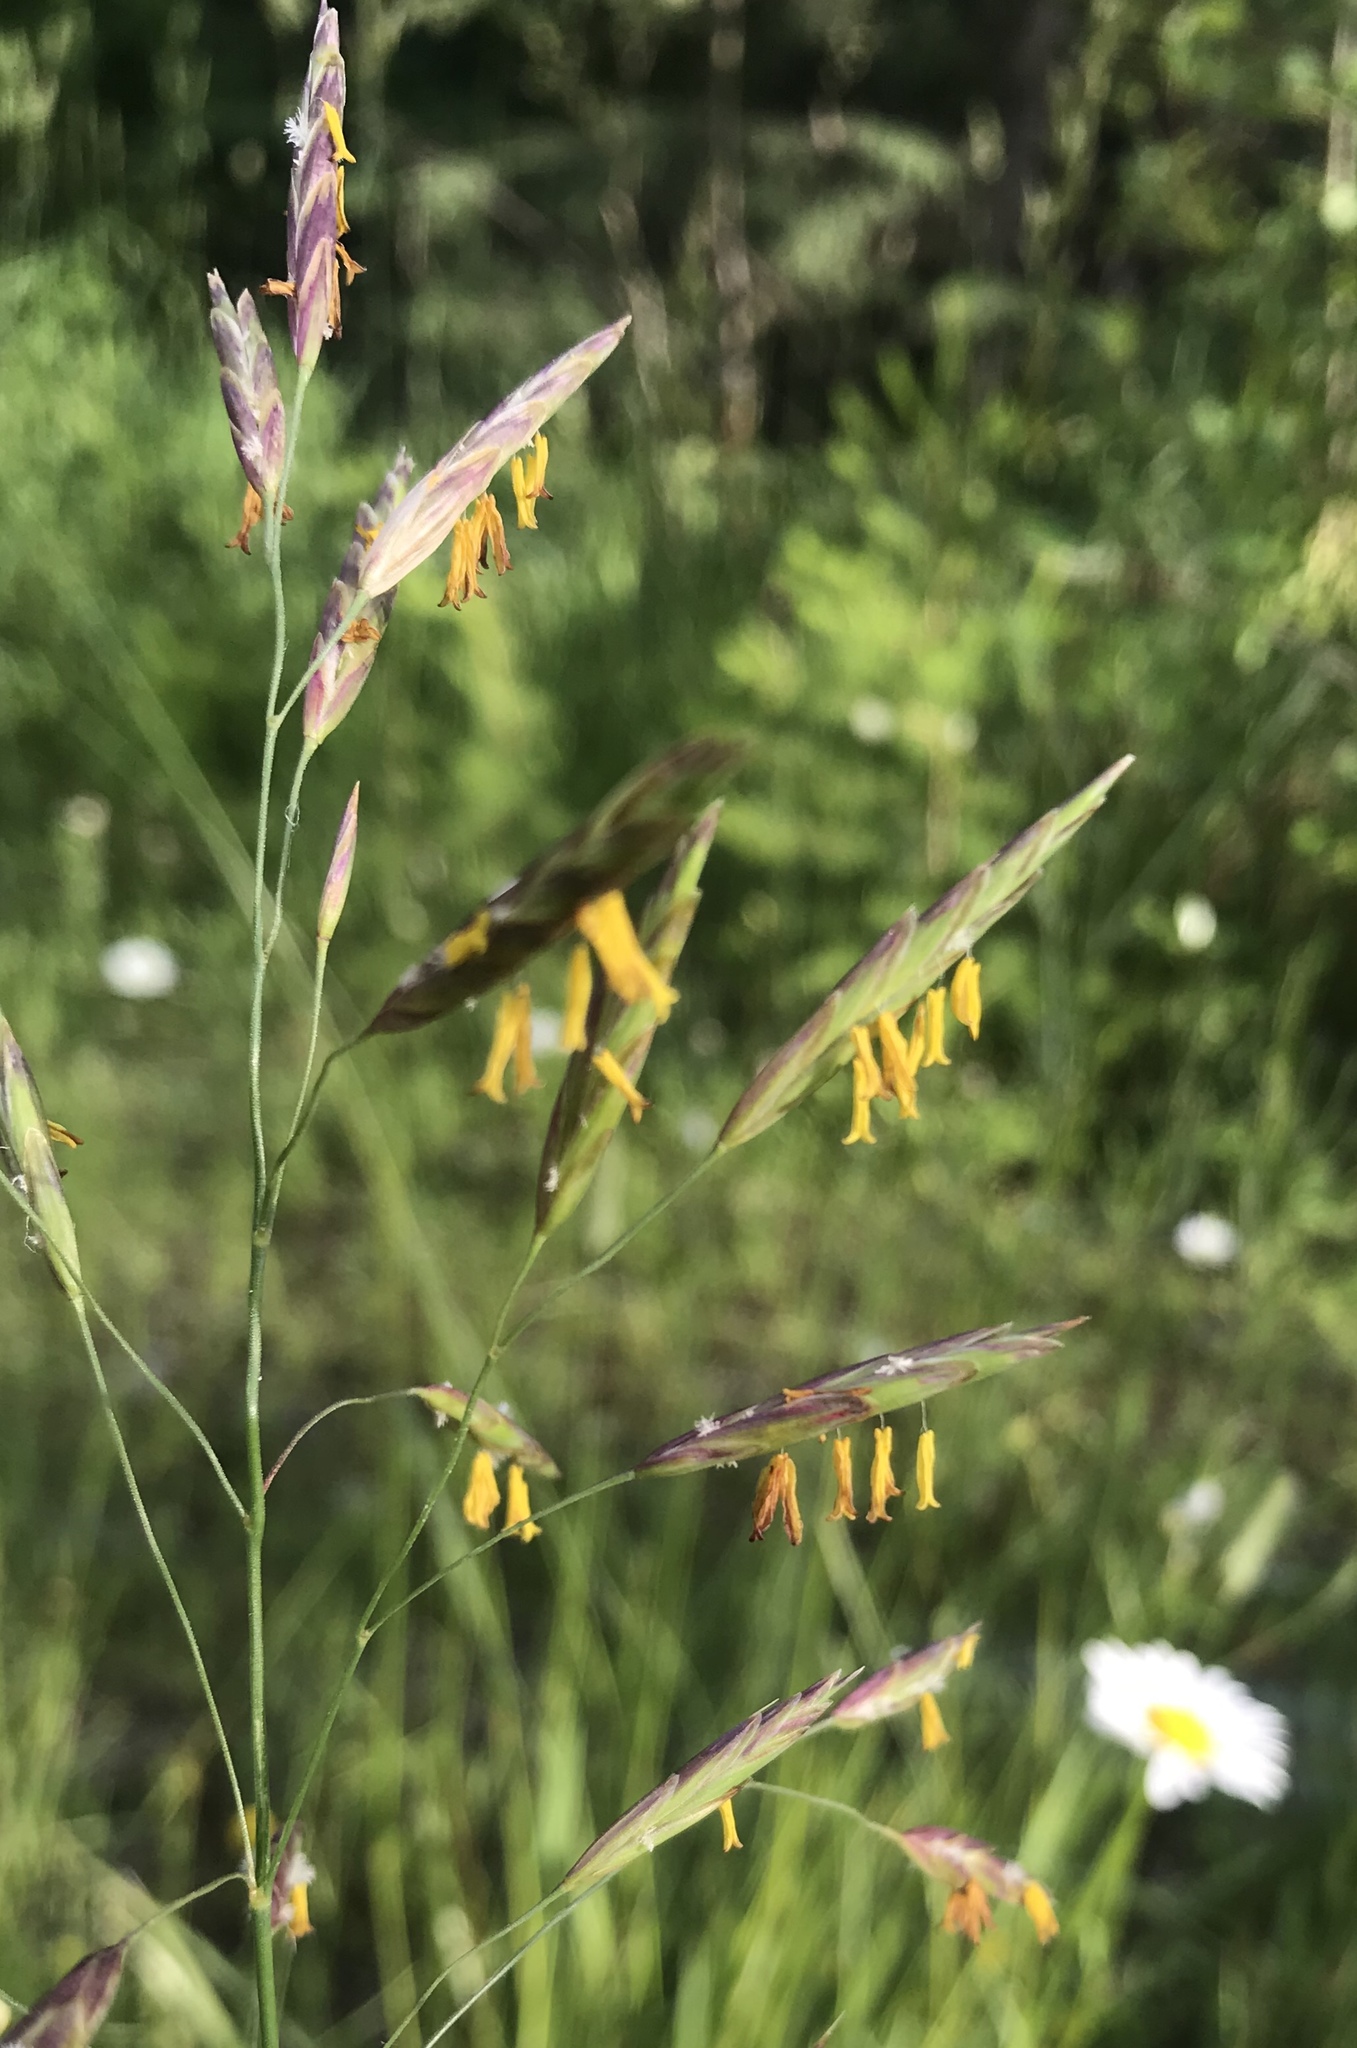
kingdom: Plantae
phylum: Tracheophyta
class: Liliopsida
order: Poales
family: Poaceae
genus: Bromus
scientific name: Bromus inermis
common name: Smooth brome
